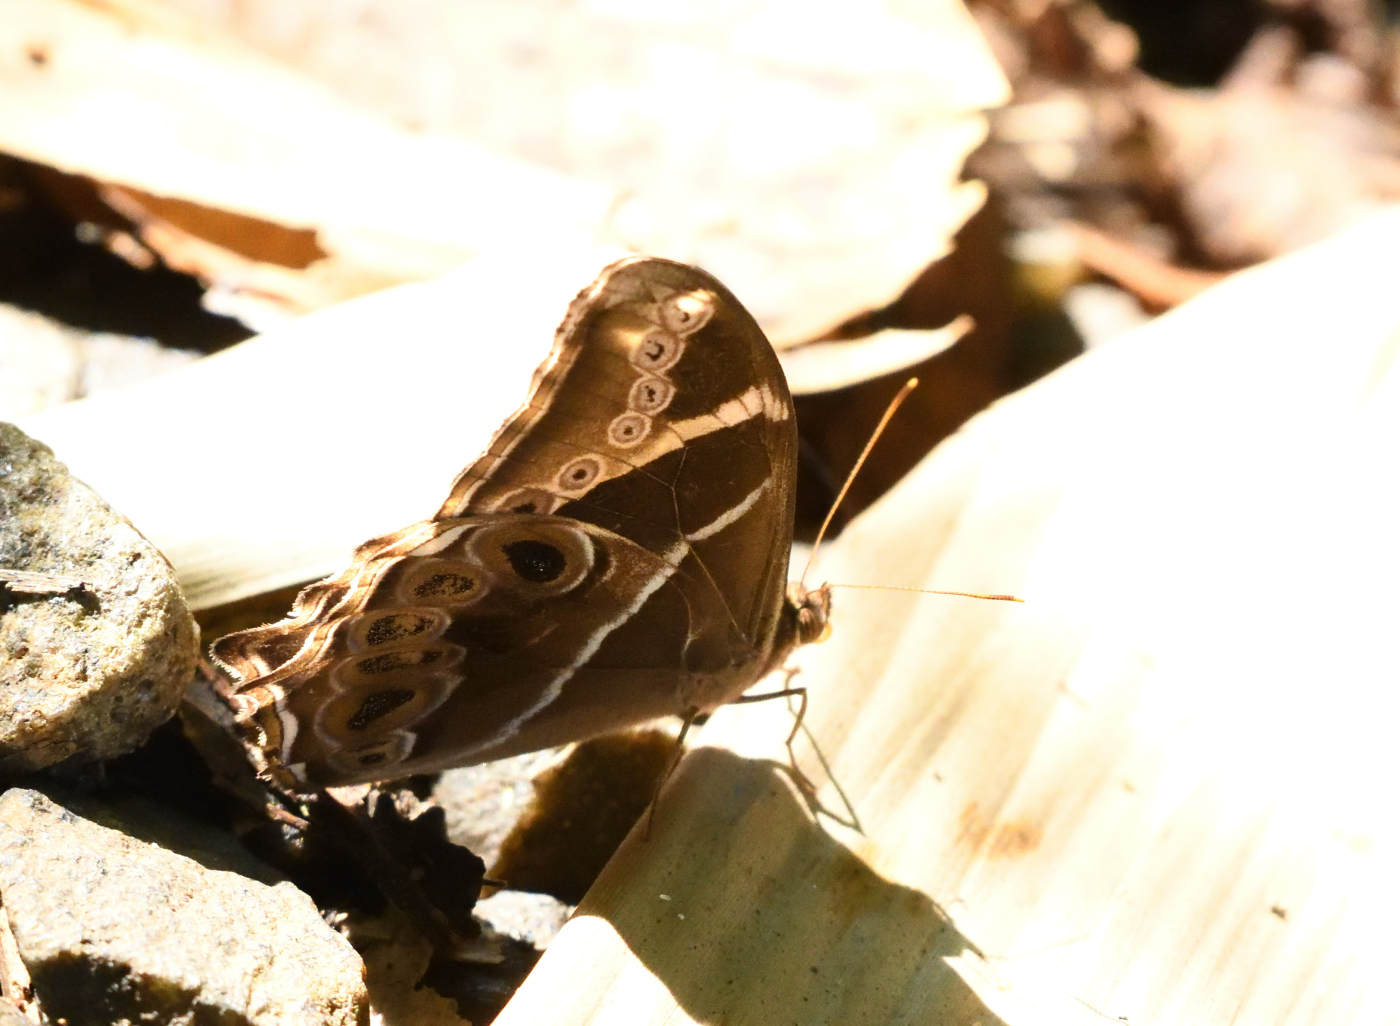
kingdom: Animalia
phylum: Arthropoda
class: Insecta
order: Lepidoptera
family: Nymphalidae
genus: Lethe
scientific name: Lethe europa
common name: Bamboo treebrown
